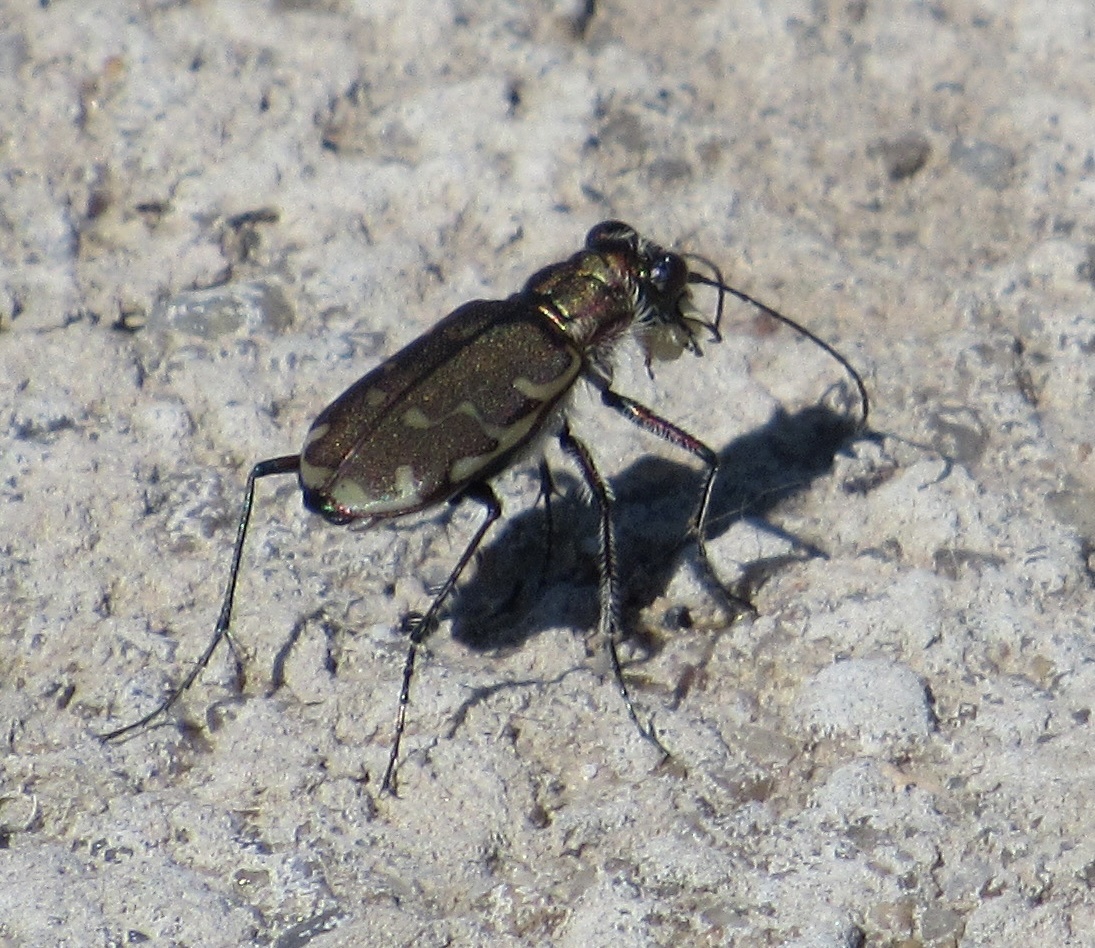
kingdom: Animalia
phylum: Arthropoda
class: Insecta
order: Coleoptera
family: Carabidae
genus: Cicindela
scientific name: Cicindela repanda
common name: Bronzed tiger beetle
